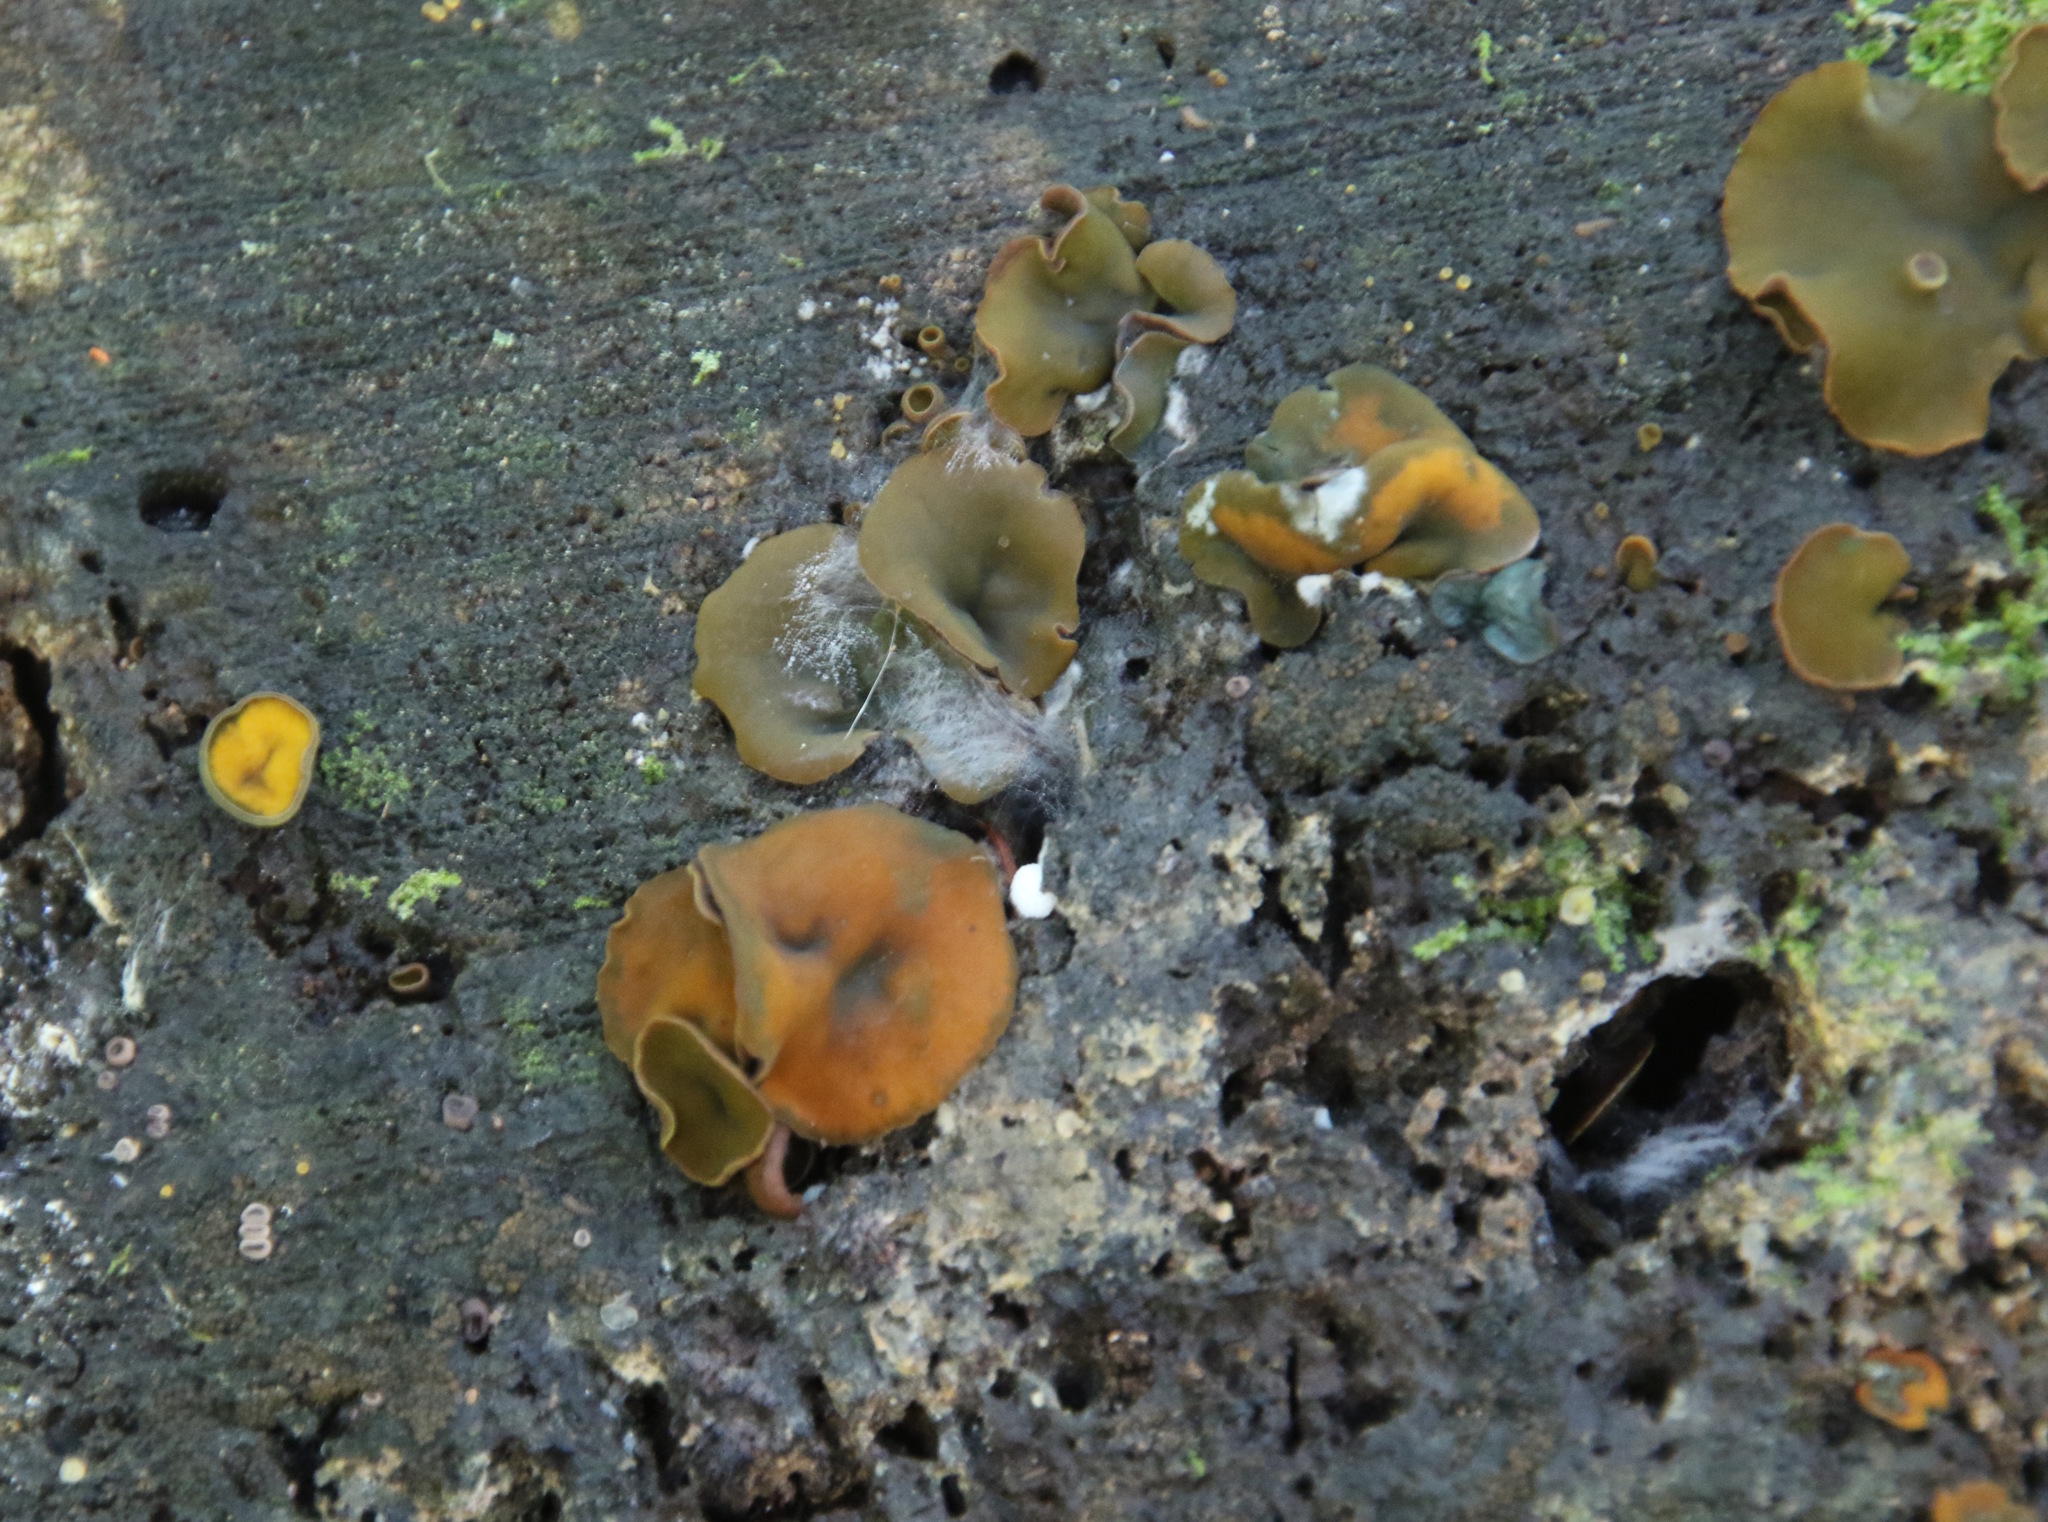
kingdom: Fungi
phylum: Ascomycota
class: Leotiomycetes
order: Helotiales
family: Cenangiaceae
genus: Chlorencoelia
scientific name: Chlorencoelia
